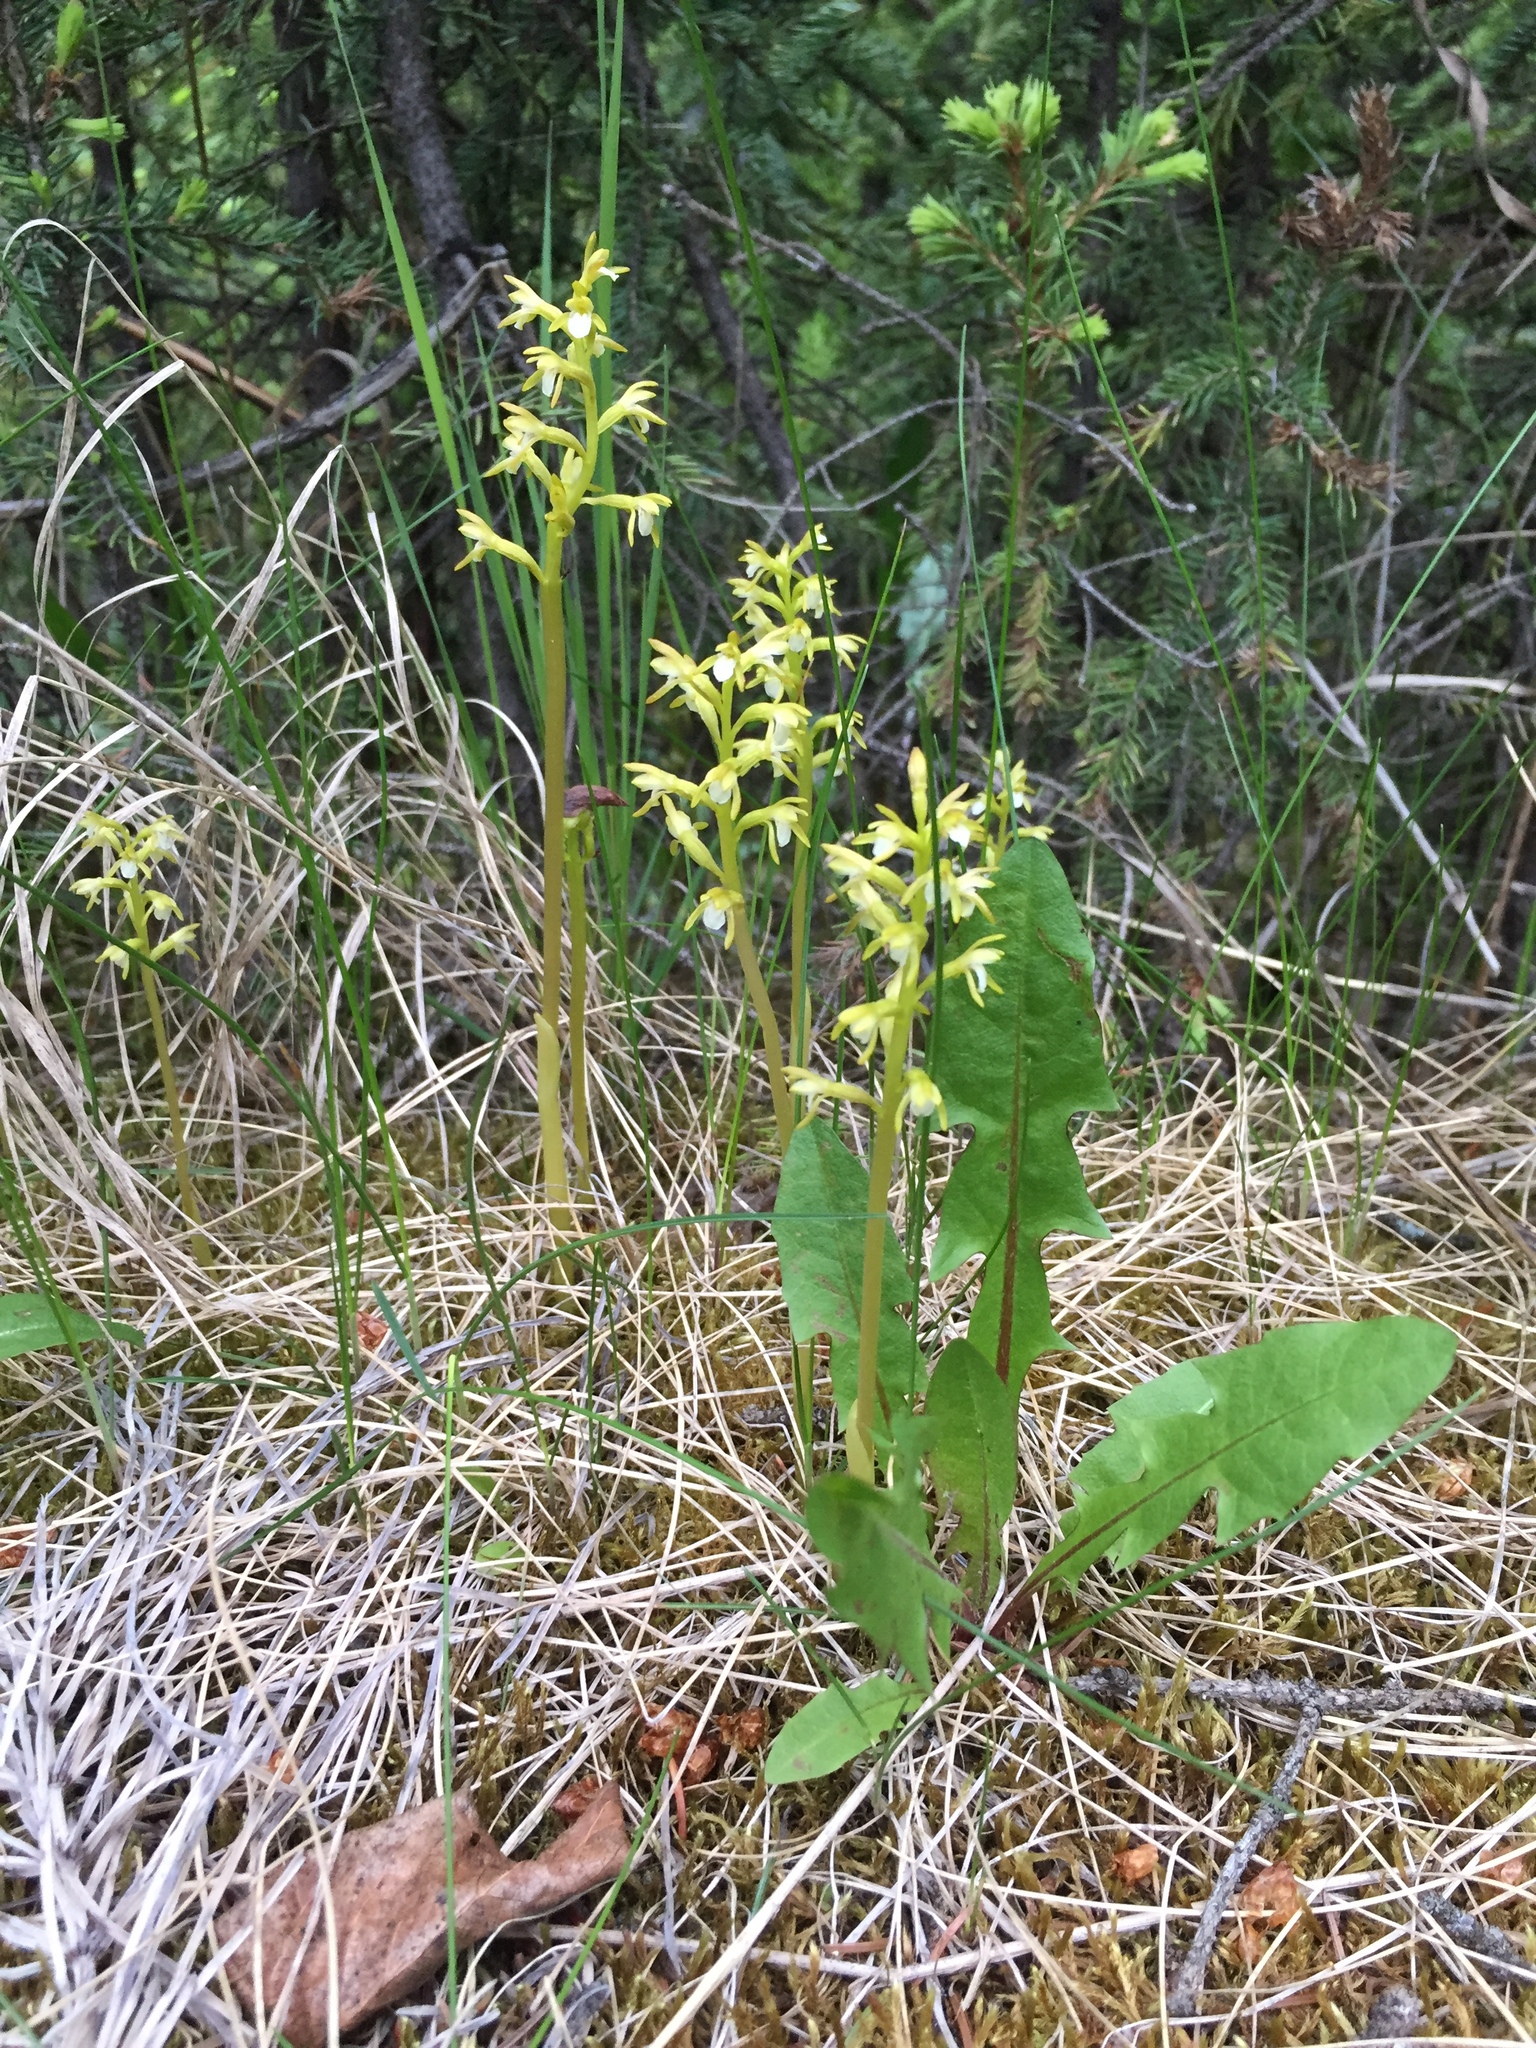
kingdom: Plantae
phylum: Tracheophyta
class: Liliopsida
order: Asparagales
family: Orchidaceae
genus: Corallorhiza
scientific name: Corallorhiza trifida
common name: Yellow coralroot
